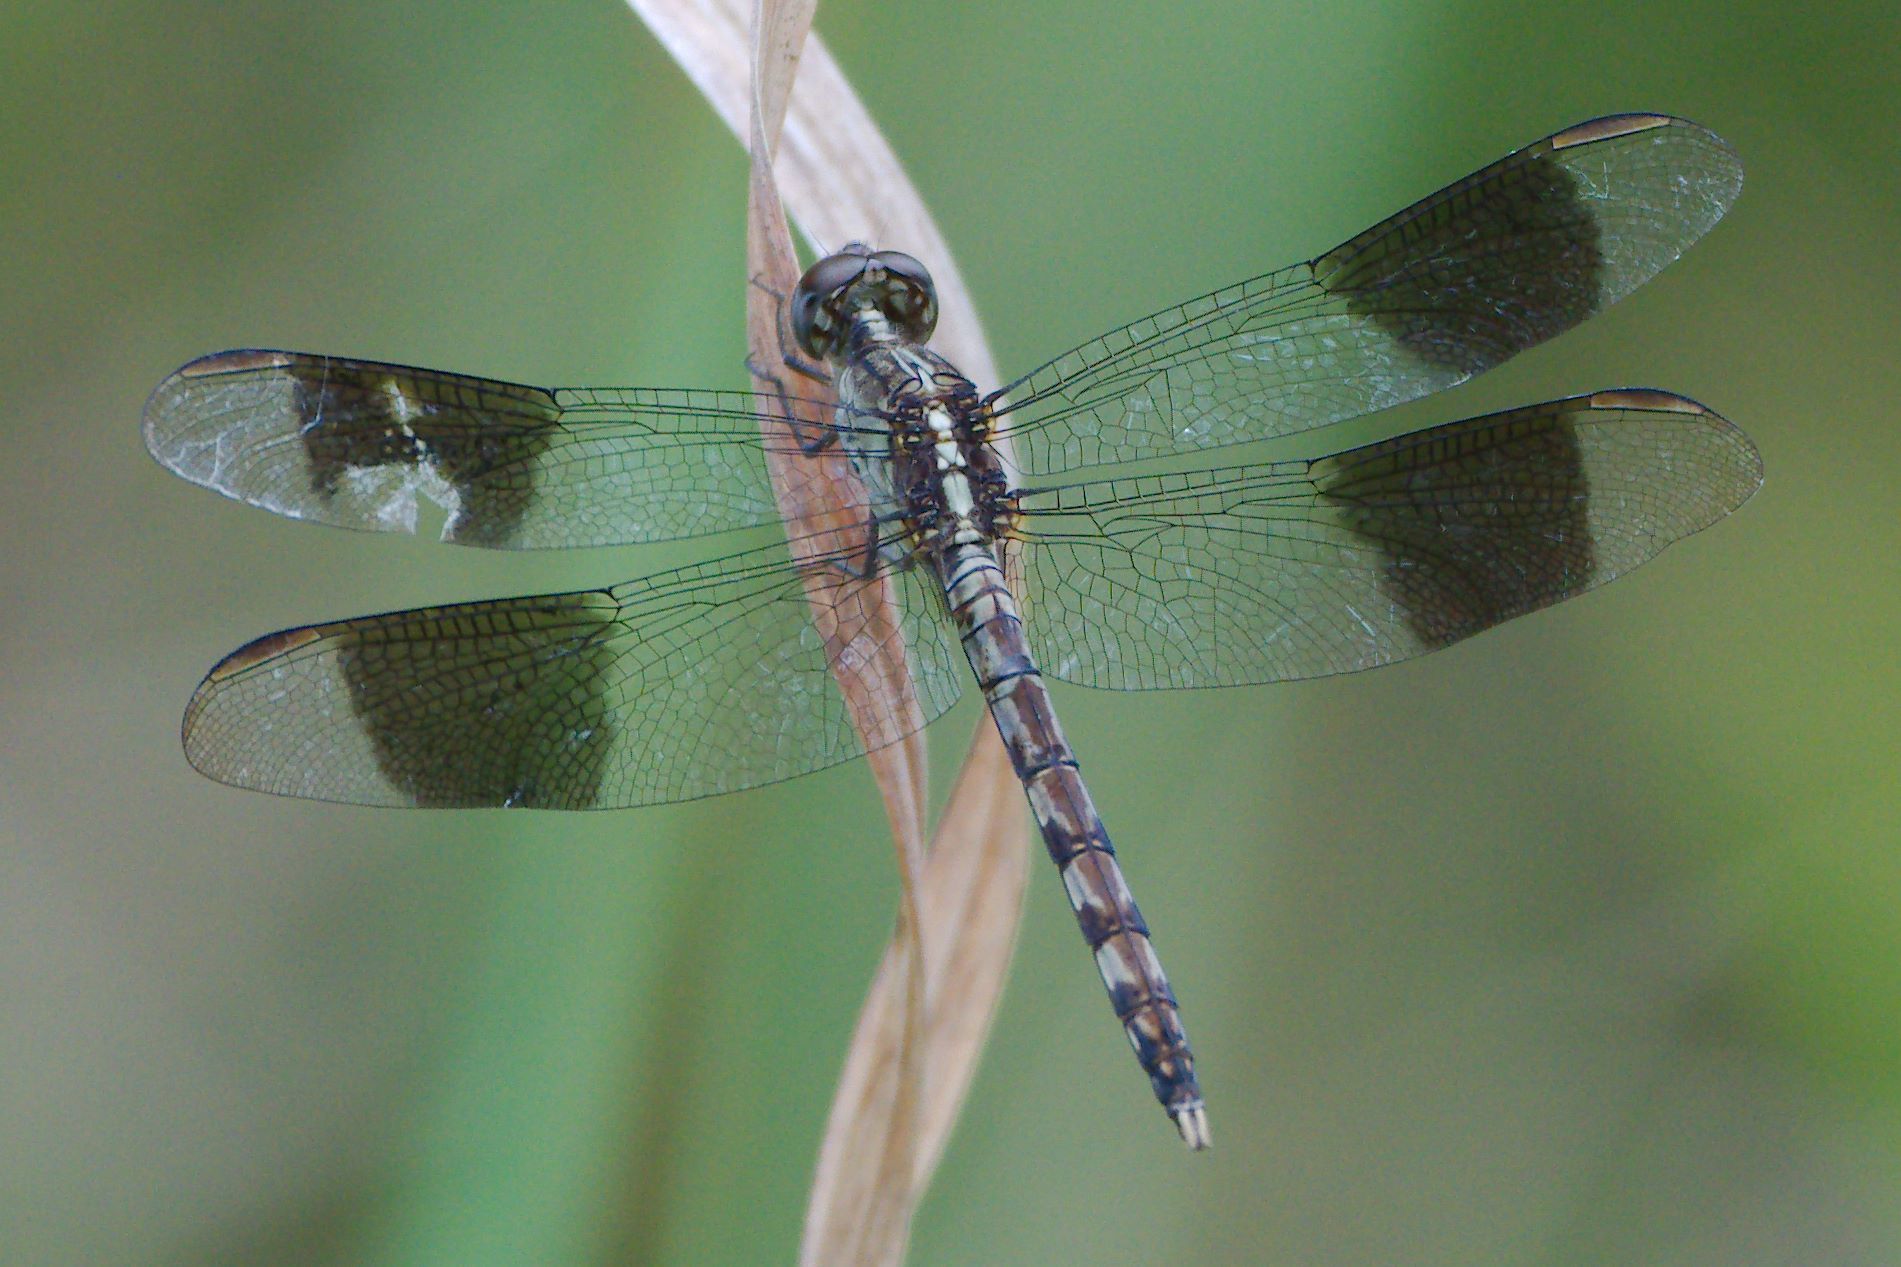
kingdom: Animalia
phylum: Arthropoda
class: Insecta
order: Odonata
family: Libellulidae
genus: Erythrodiplax
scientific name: Erythrodiplax umbrata
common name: Band-winged dragonlet
